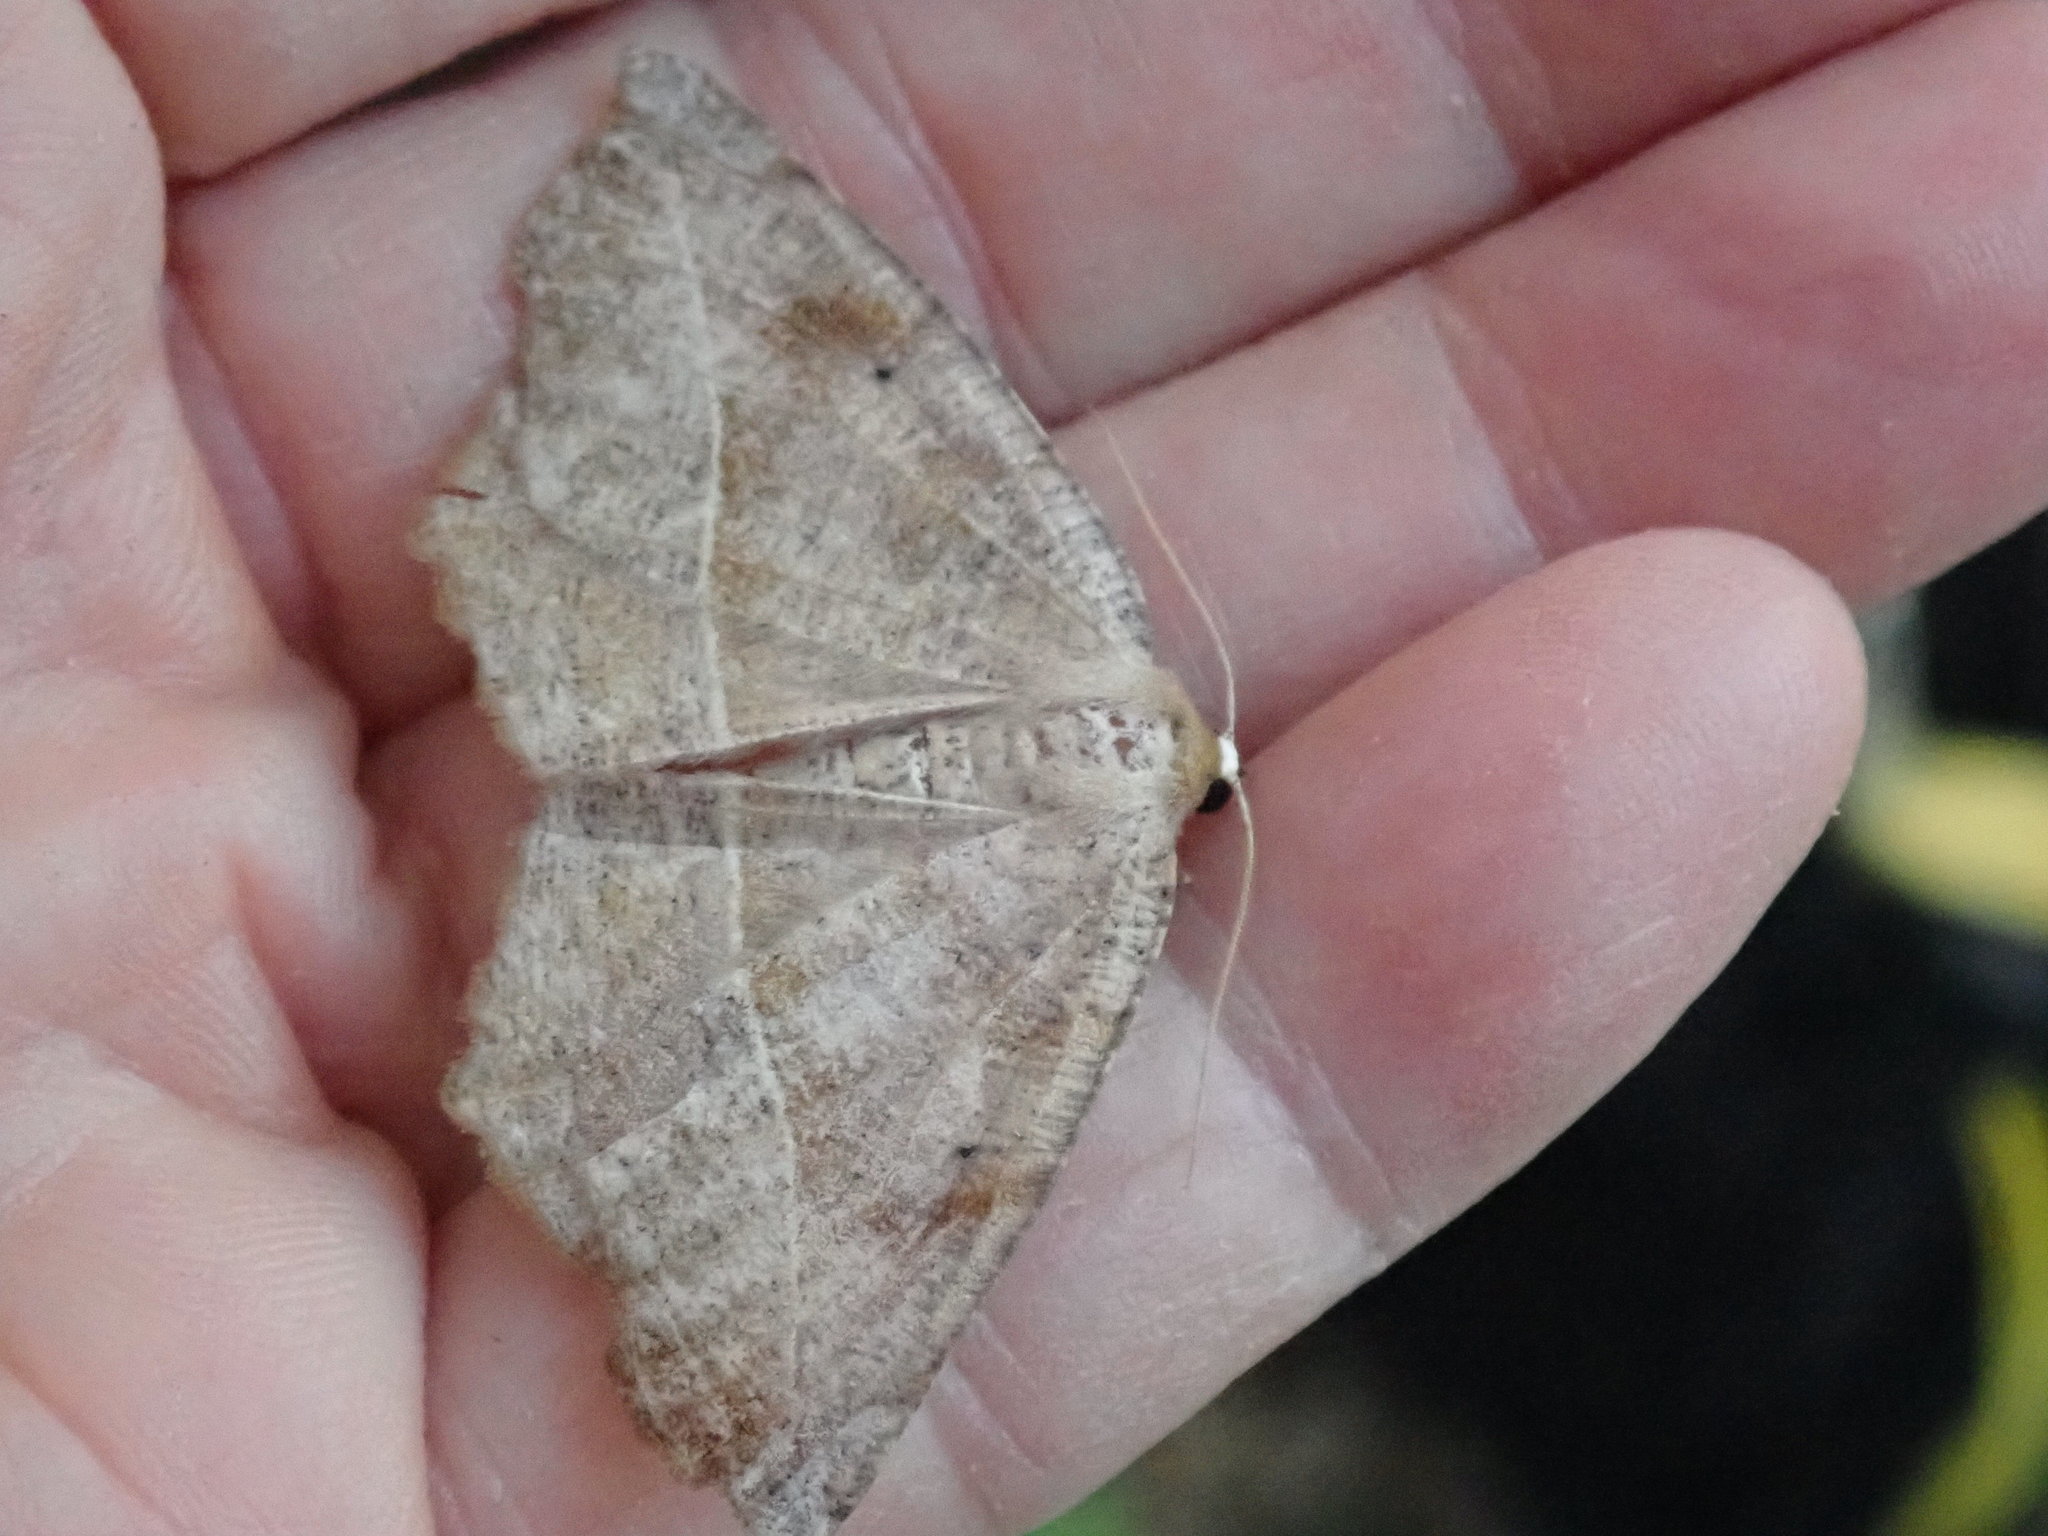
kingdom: Animalia
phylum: Arthropoda
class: Insecta
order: Lepidoptera
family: Geometridae
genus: Eutrapela
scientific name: Eutrapela clemataria
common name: Curved-toothed geometer
